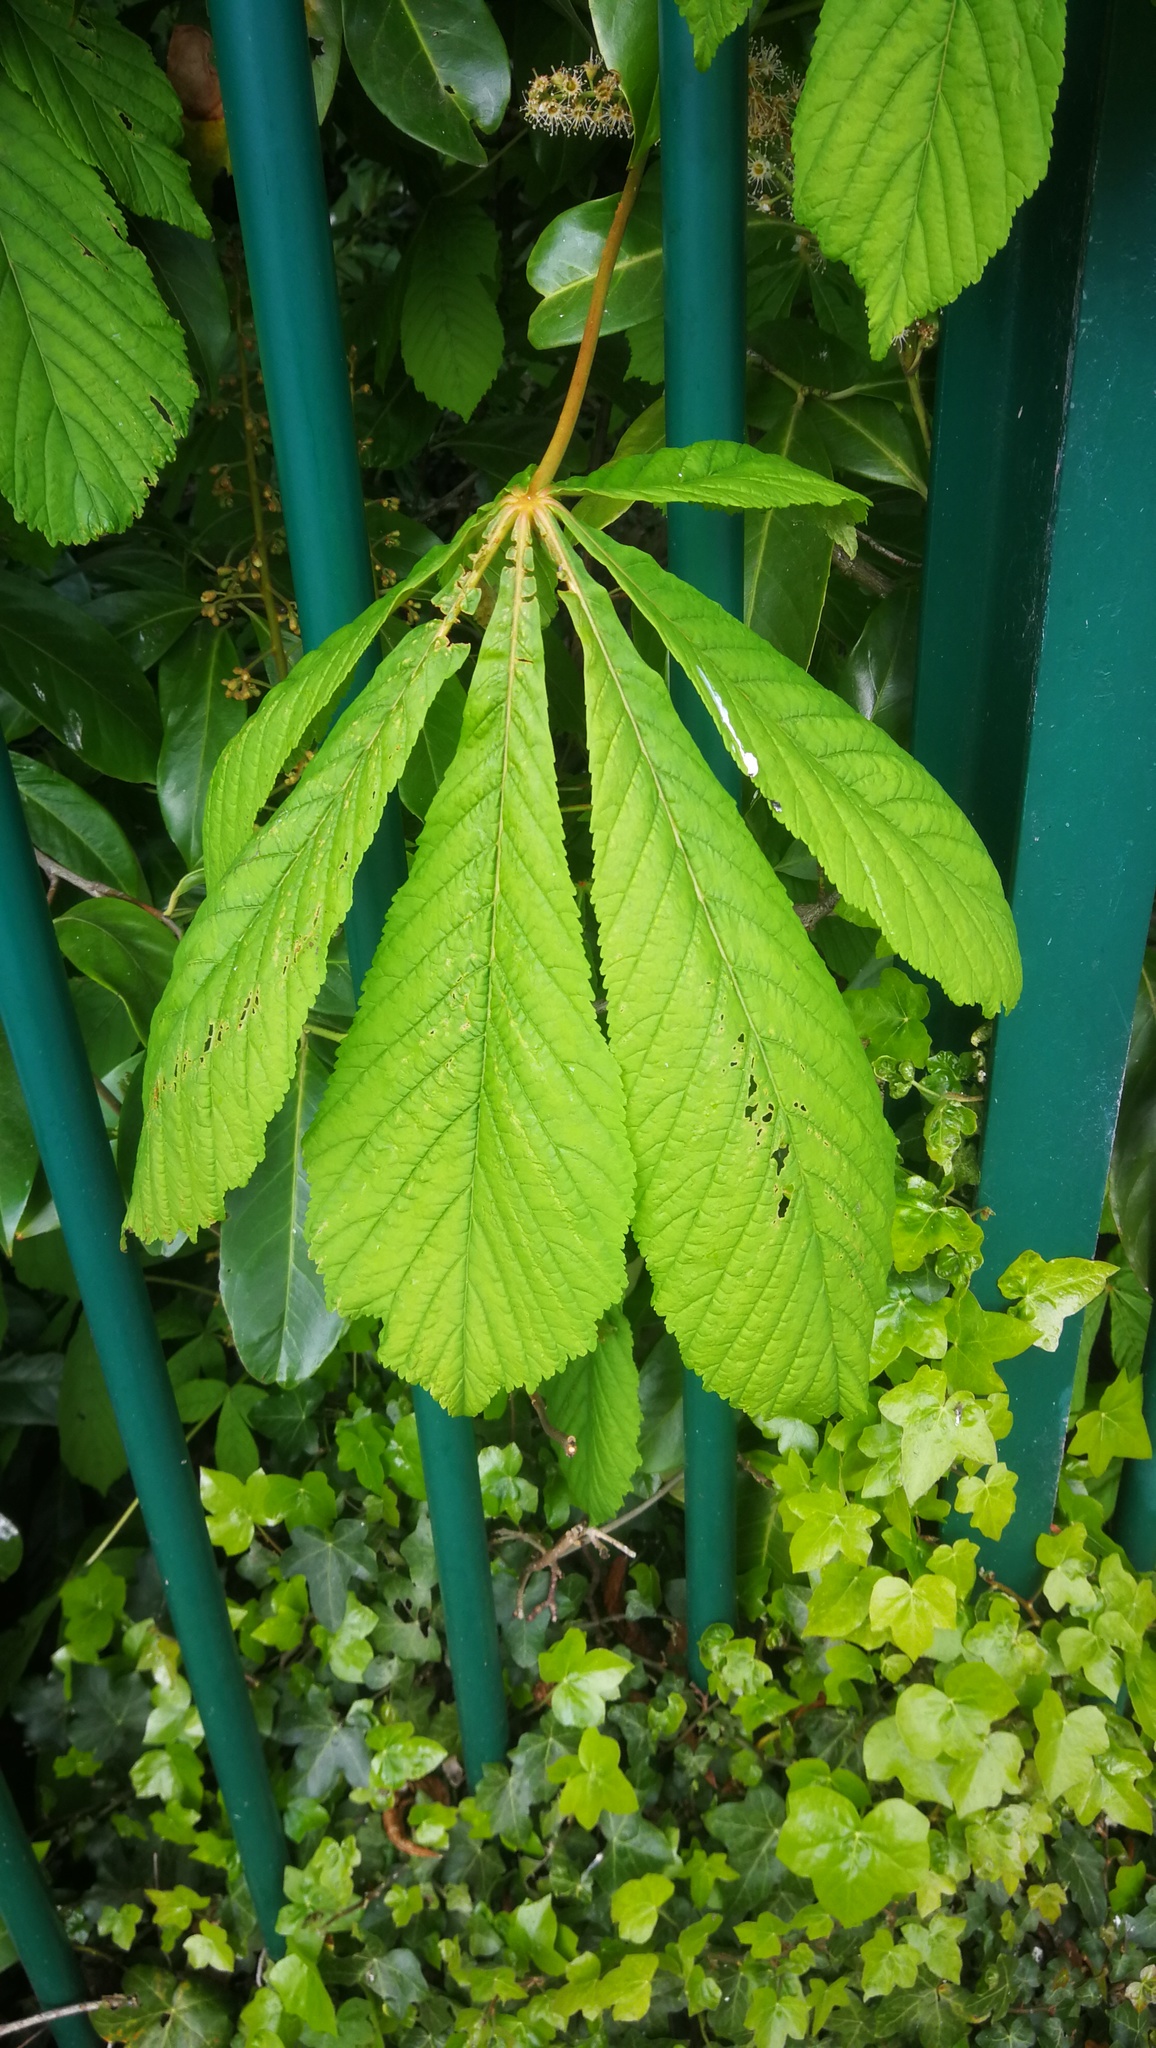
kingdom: Plantae
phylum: Tracheophyta
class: Magnoliopsida
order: Sapindales
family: Sapindaceae
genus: Aesculus
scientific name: Aesculus hippocastanum
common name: Horse-chestnut
